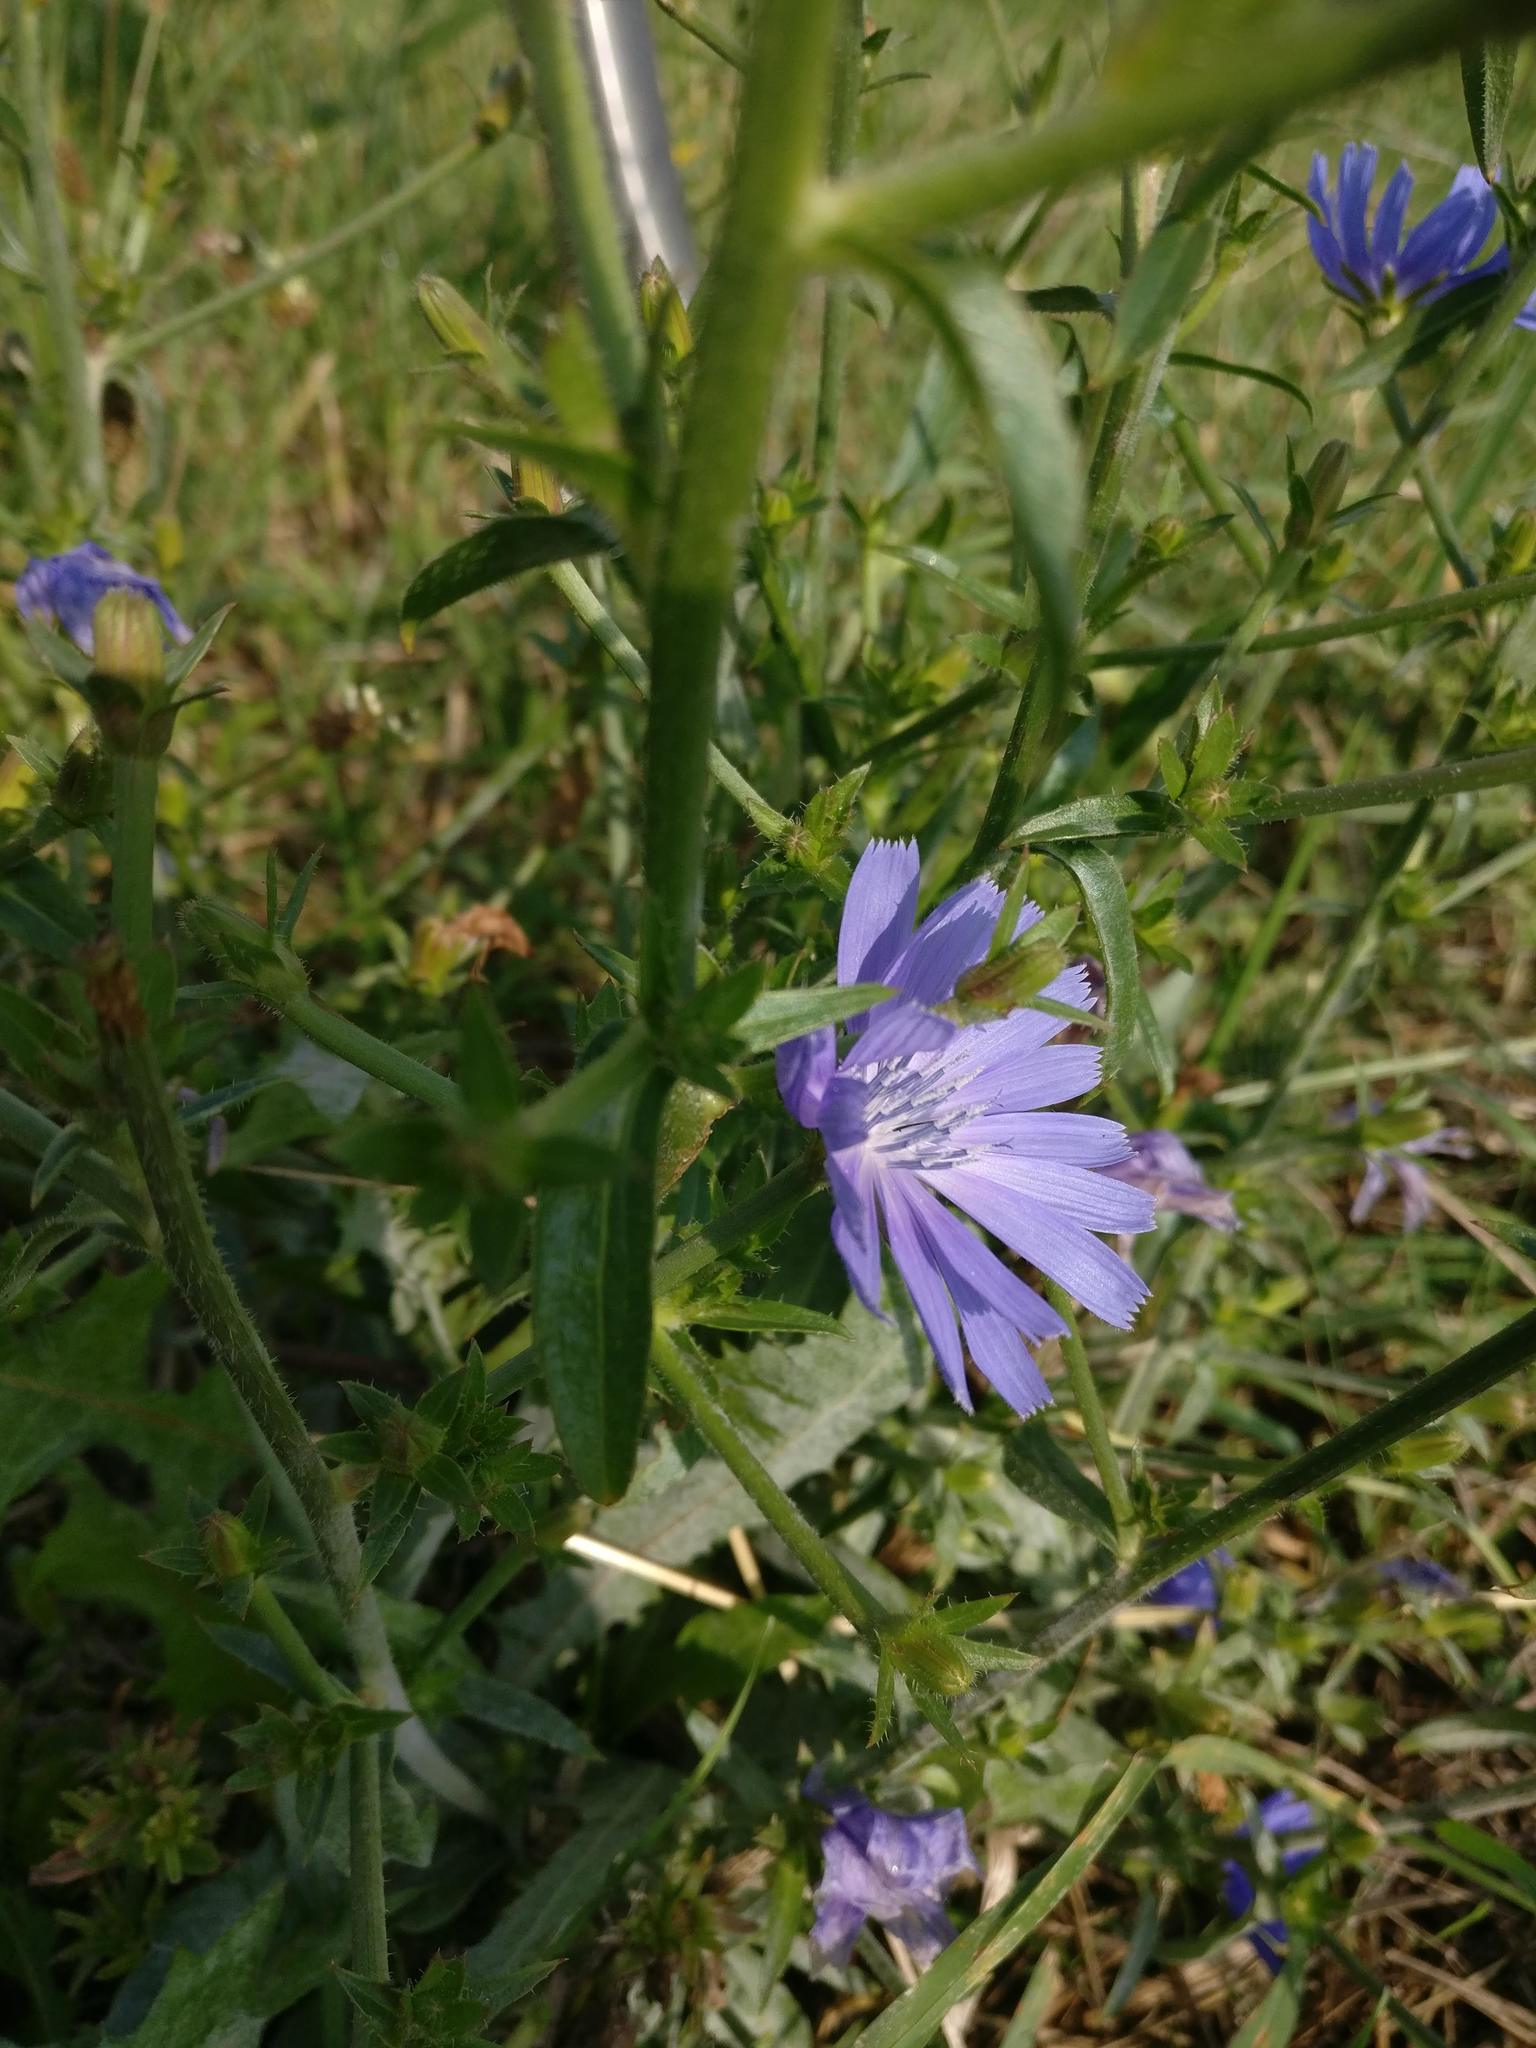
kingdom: Plantae
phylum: Tracheophyta
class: Magnoliopsida
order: Asterales
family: Asteraceae
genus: Cichorium
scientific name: Cichorium intybus
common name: Chicory
